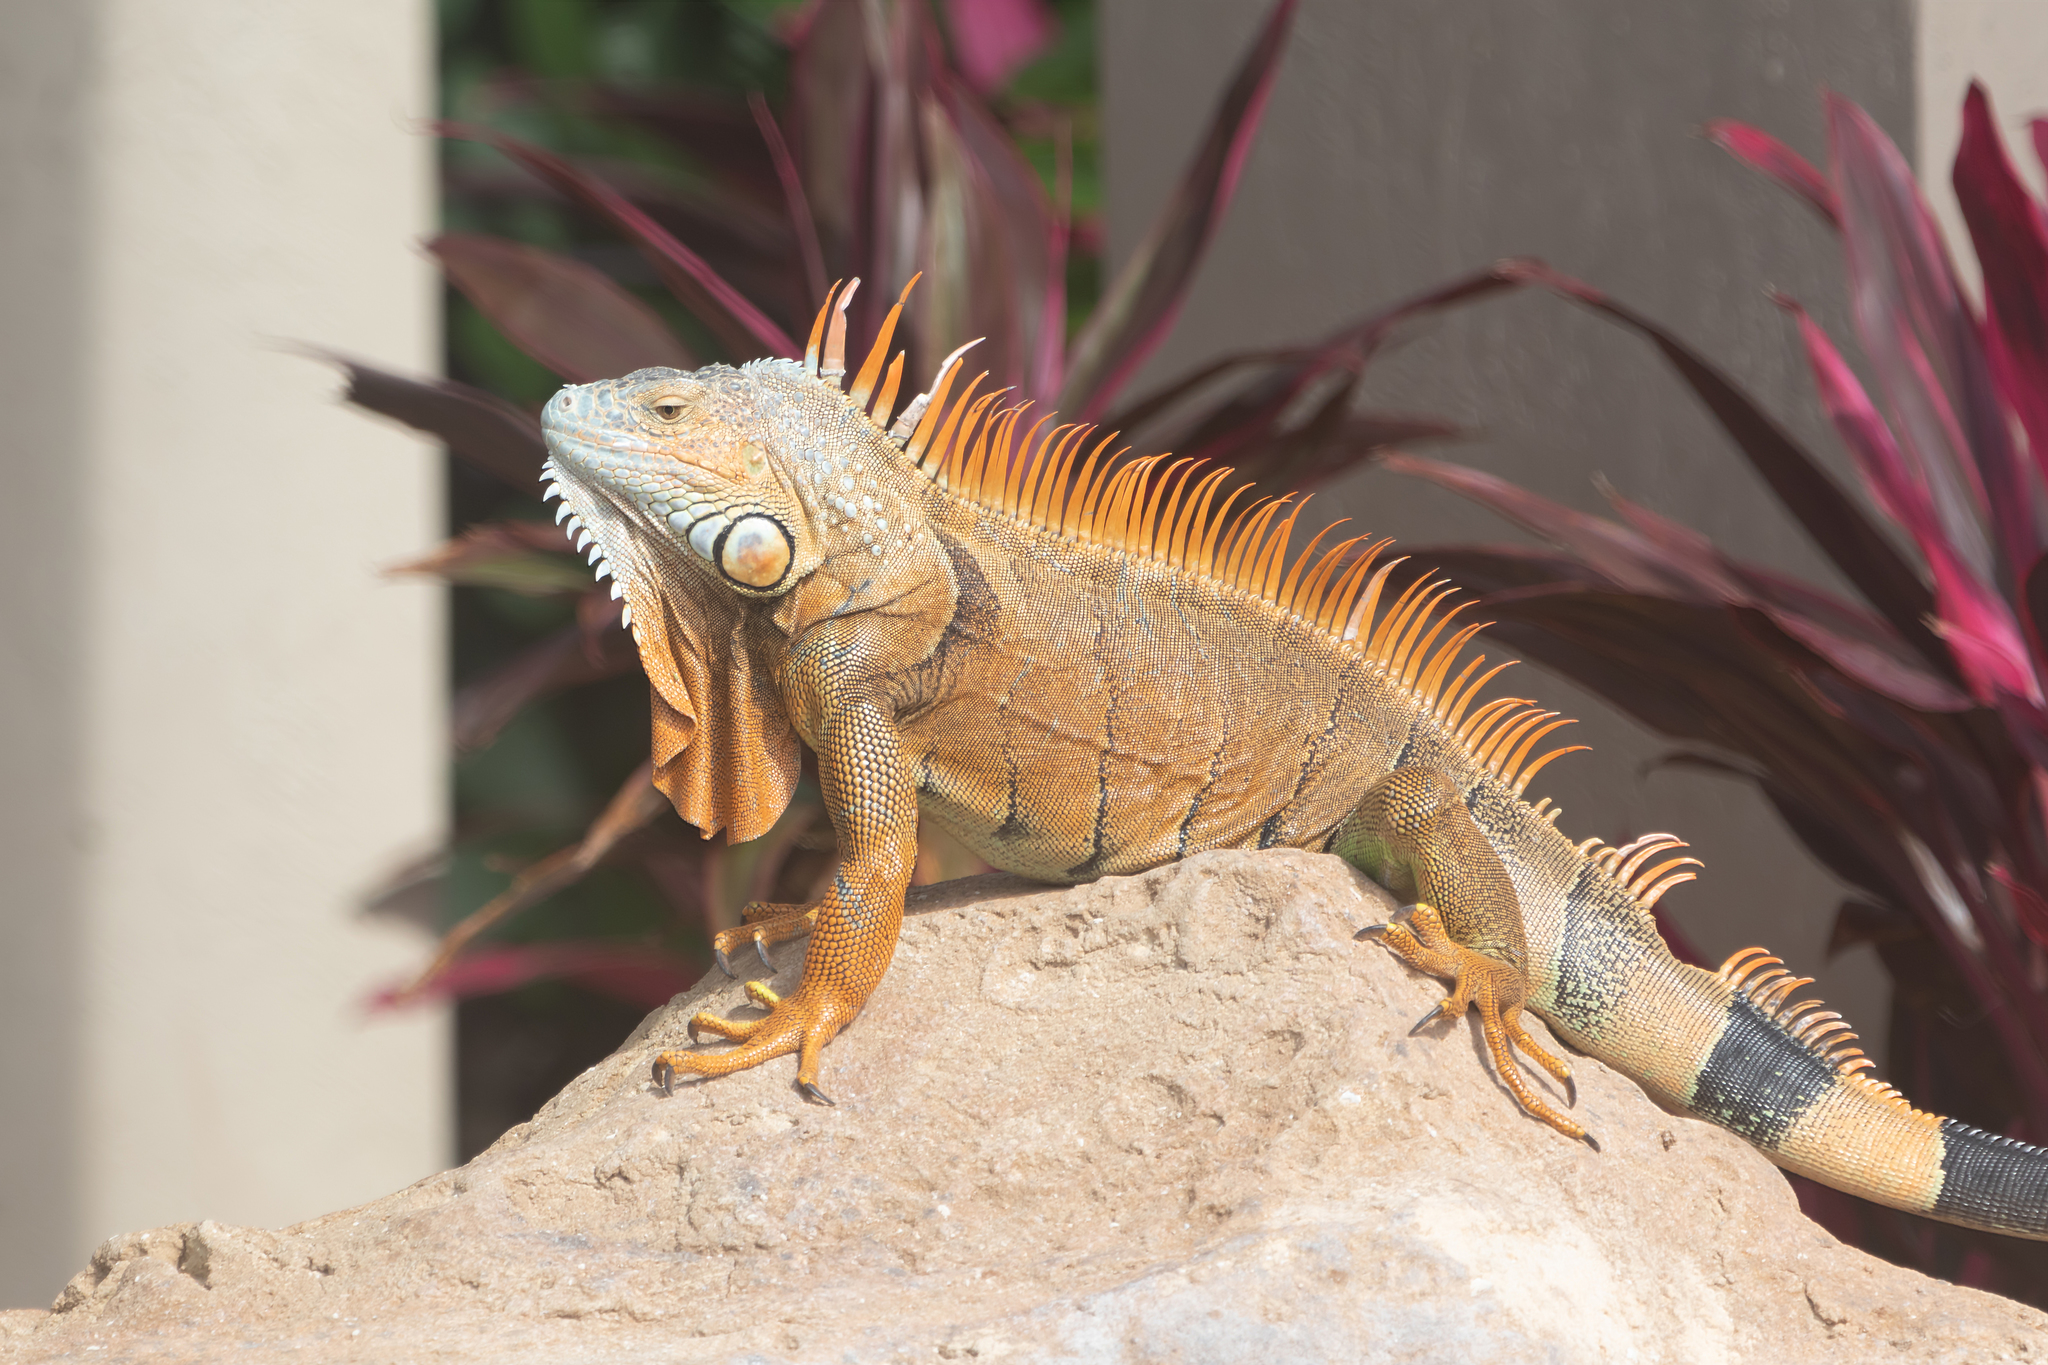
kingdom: Animalia
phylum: Chordata
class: Squamata
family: Iguanidae
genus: Iguana
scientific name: Iguana iguana
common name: Green iguana
